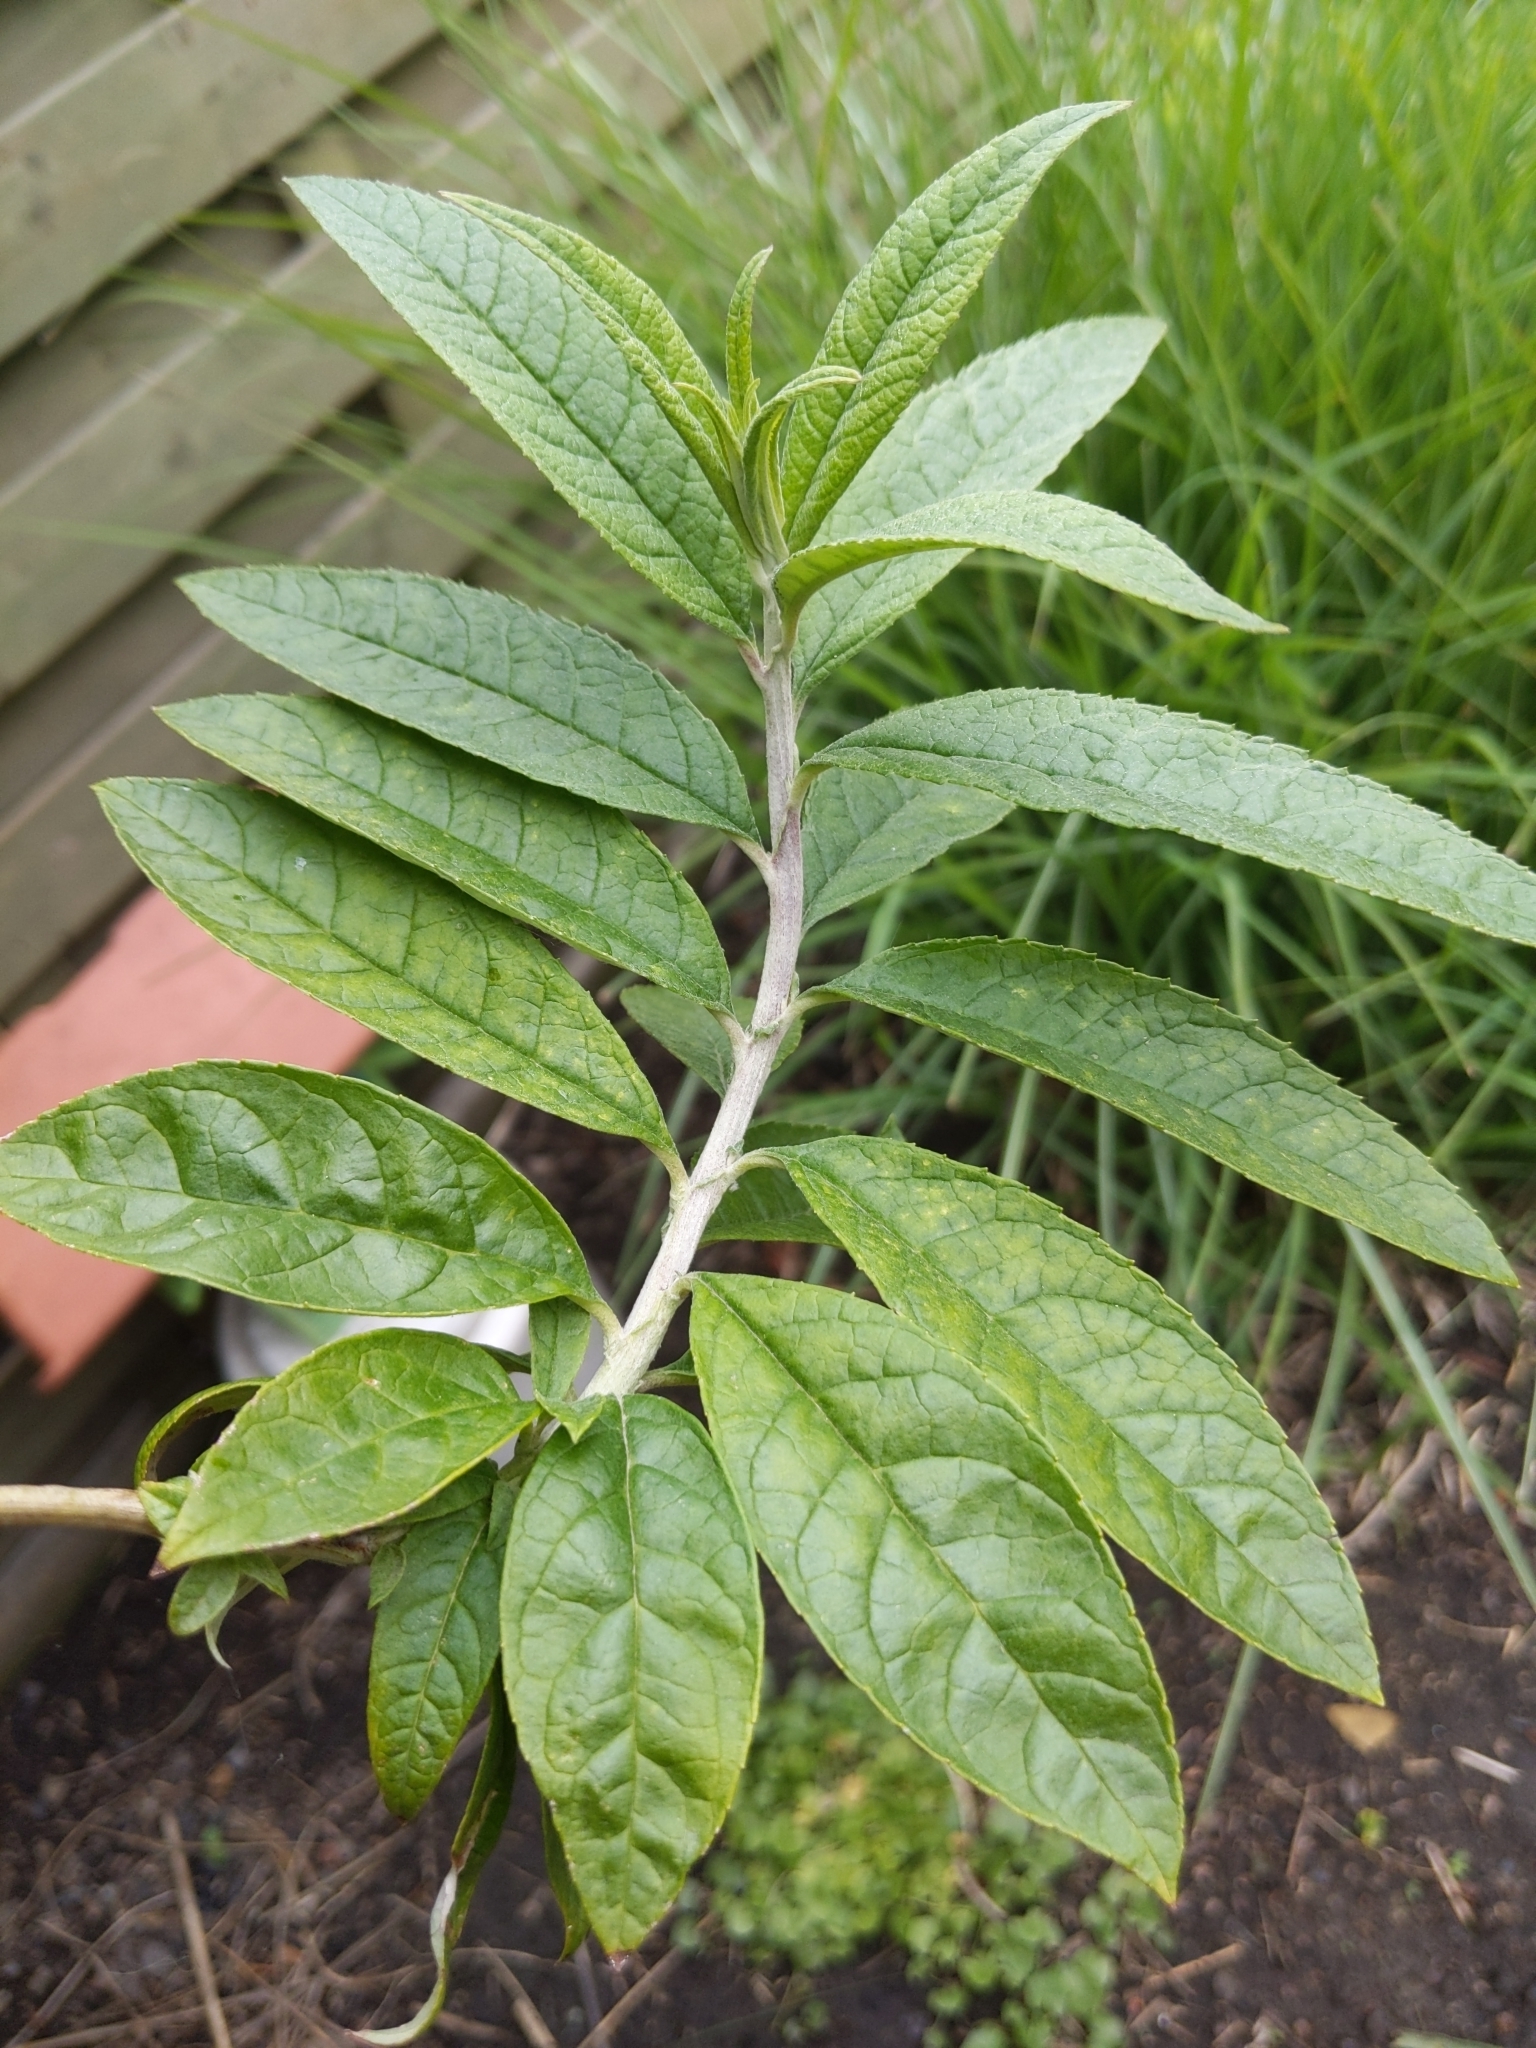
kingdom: Plantae
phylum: Tracheophyta
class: Magnoliopsida
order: Lamiales
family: Scrophulariaceae
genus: Buddleja
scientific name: Buddleja davidii
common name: Butterfly-bush
